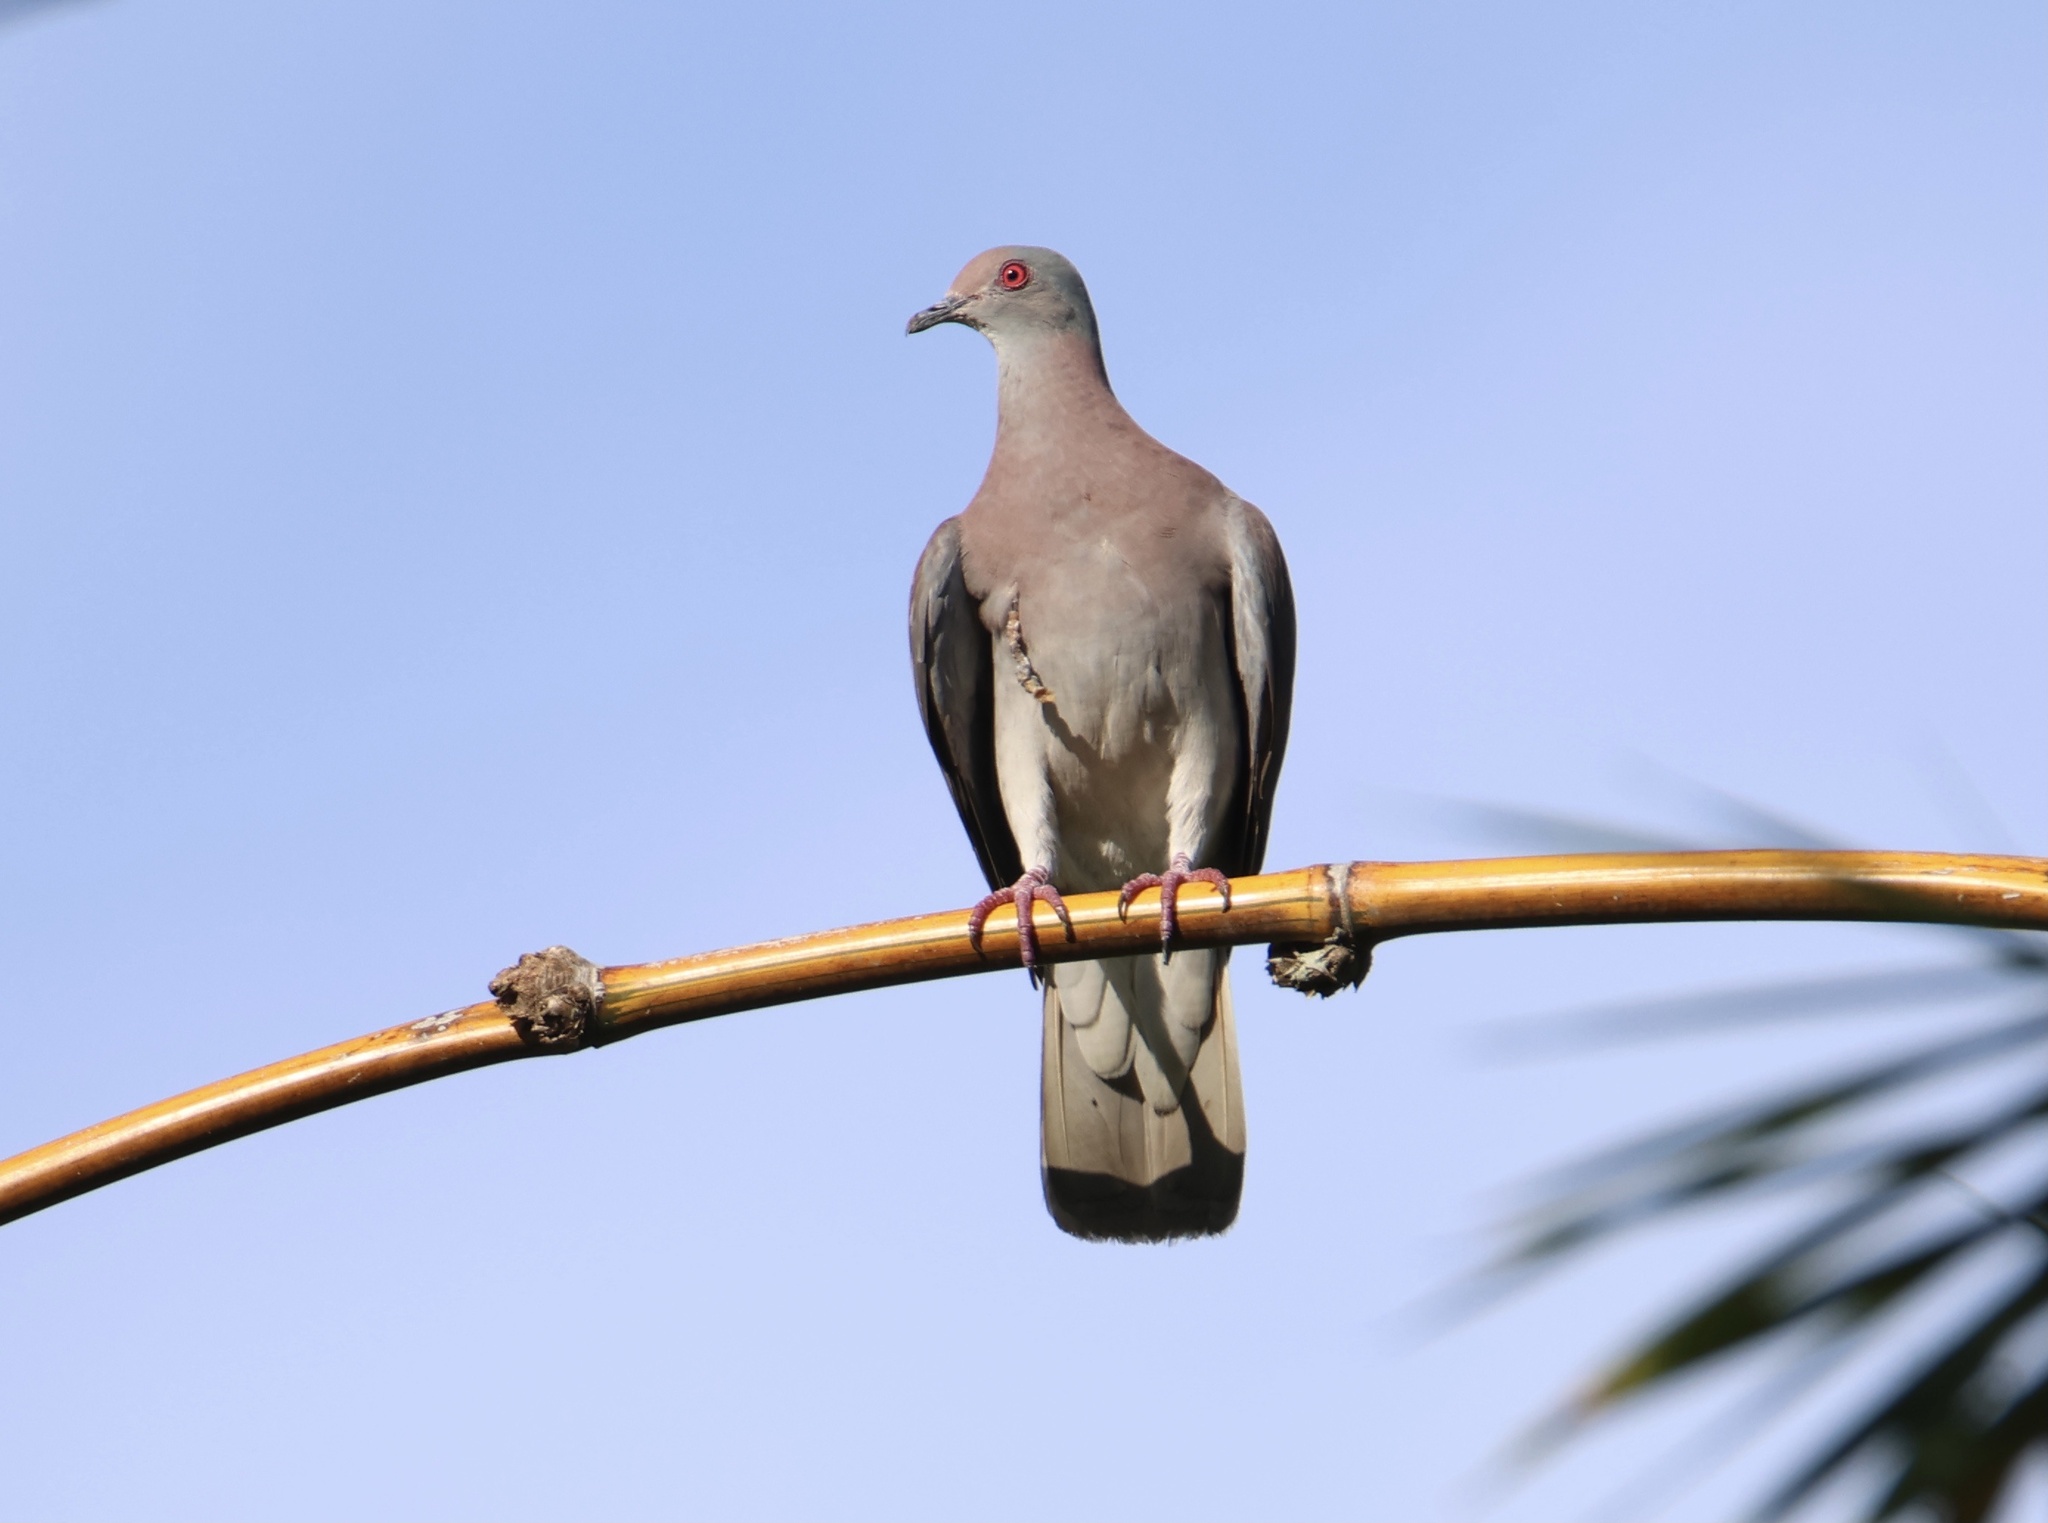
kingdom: Animalia
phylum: Chordata
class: Aves
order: Columbiformes
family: Columbidae
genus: Patagioenas
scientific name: Patagioenas cayennensis
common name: Pale-vented pigeon
